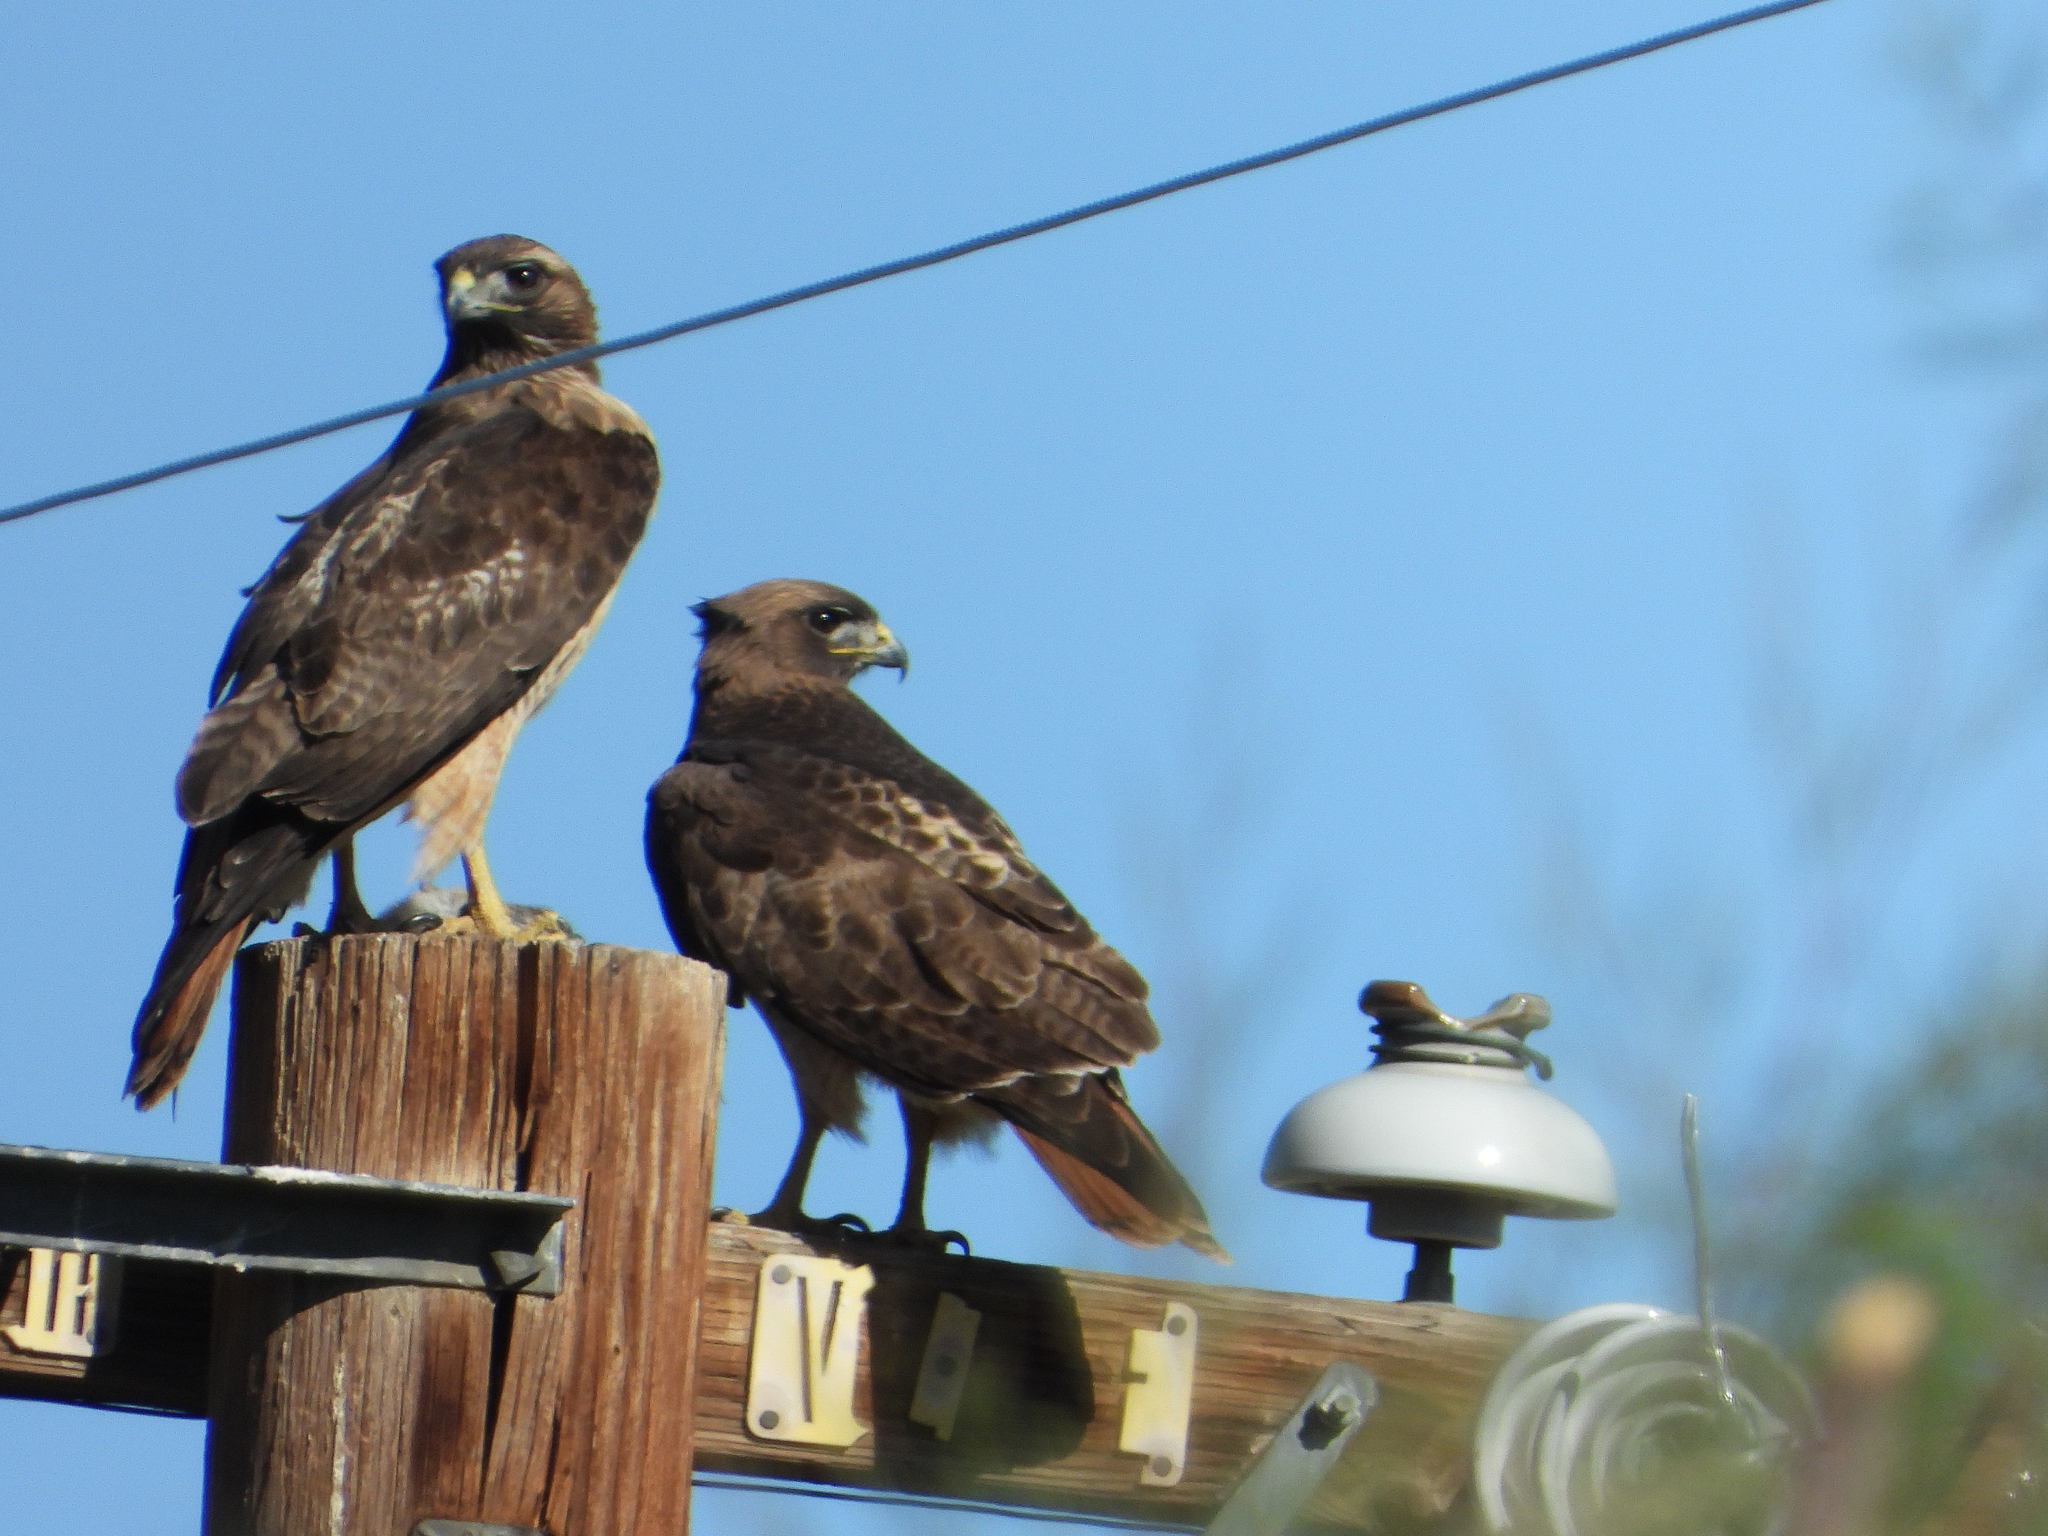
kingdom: Animalia
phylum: Chordata
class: Aves
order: Accipitriformes
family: Accipitridae
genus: Buteo
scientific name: Buteo jamaicensis
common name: Red-tailed hawk
